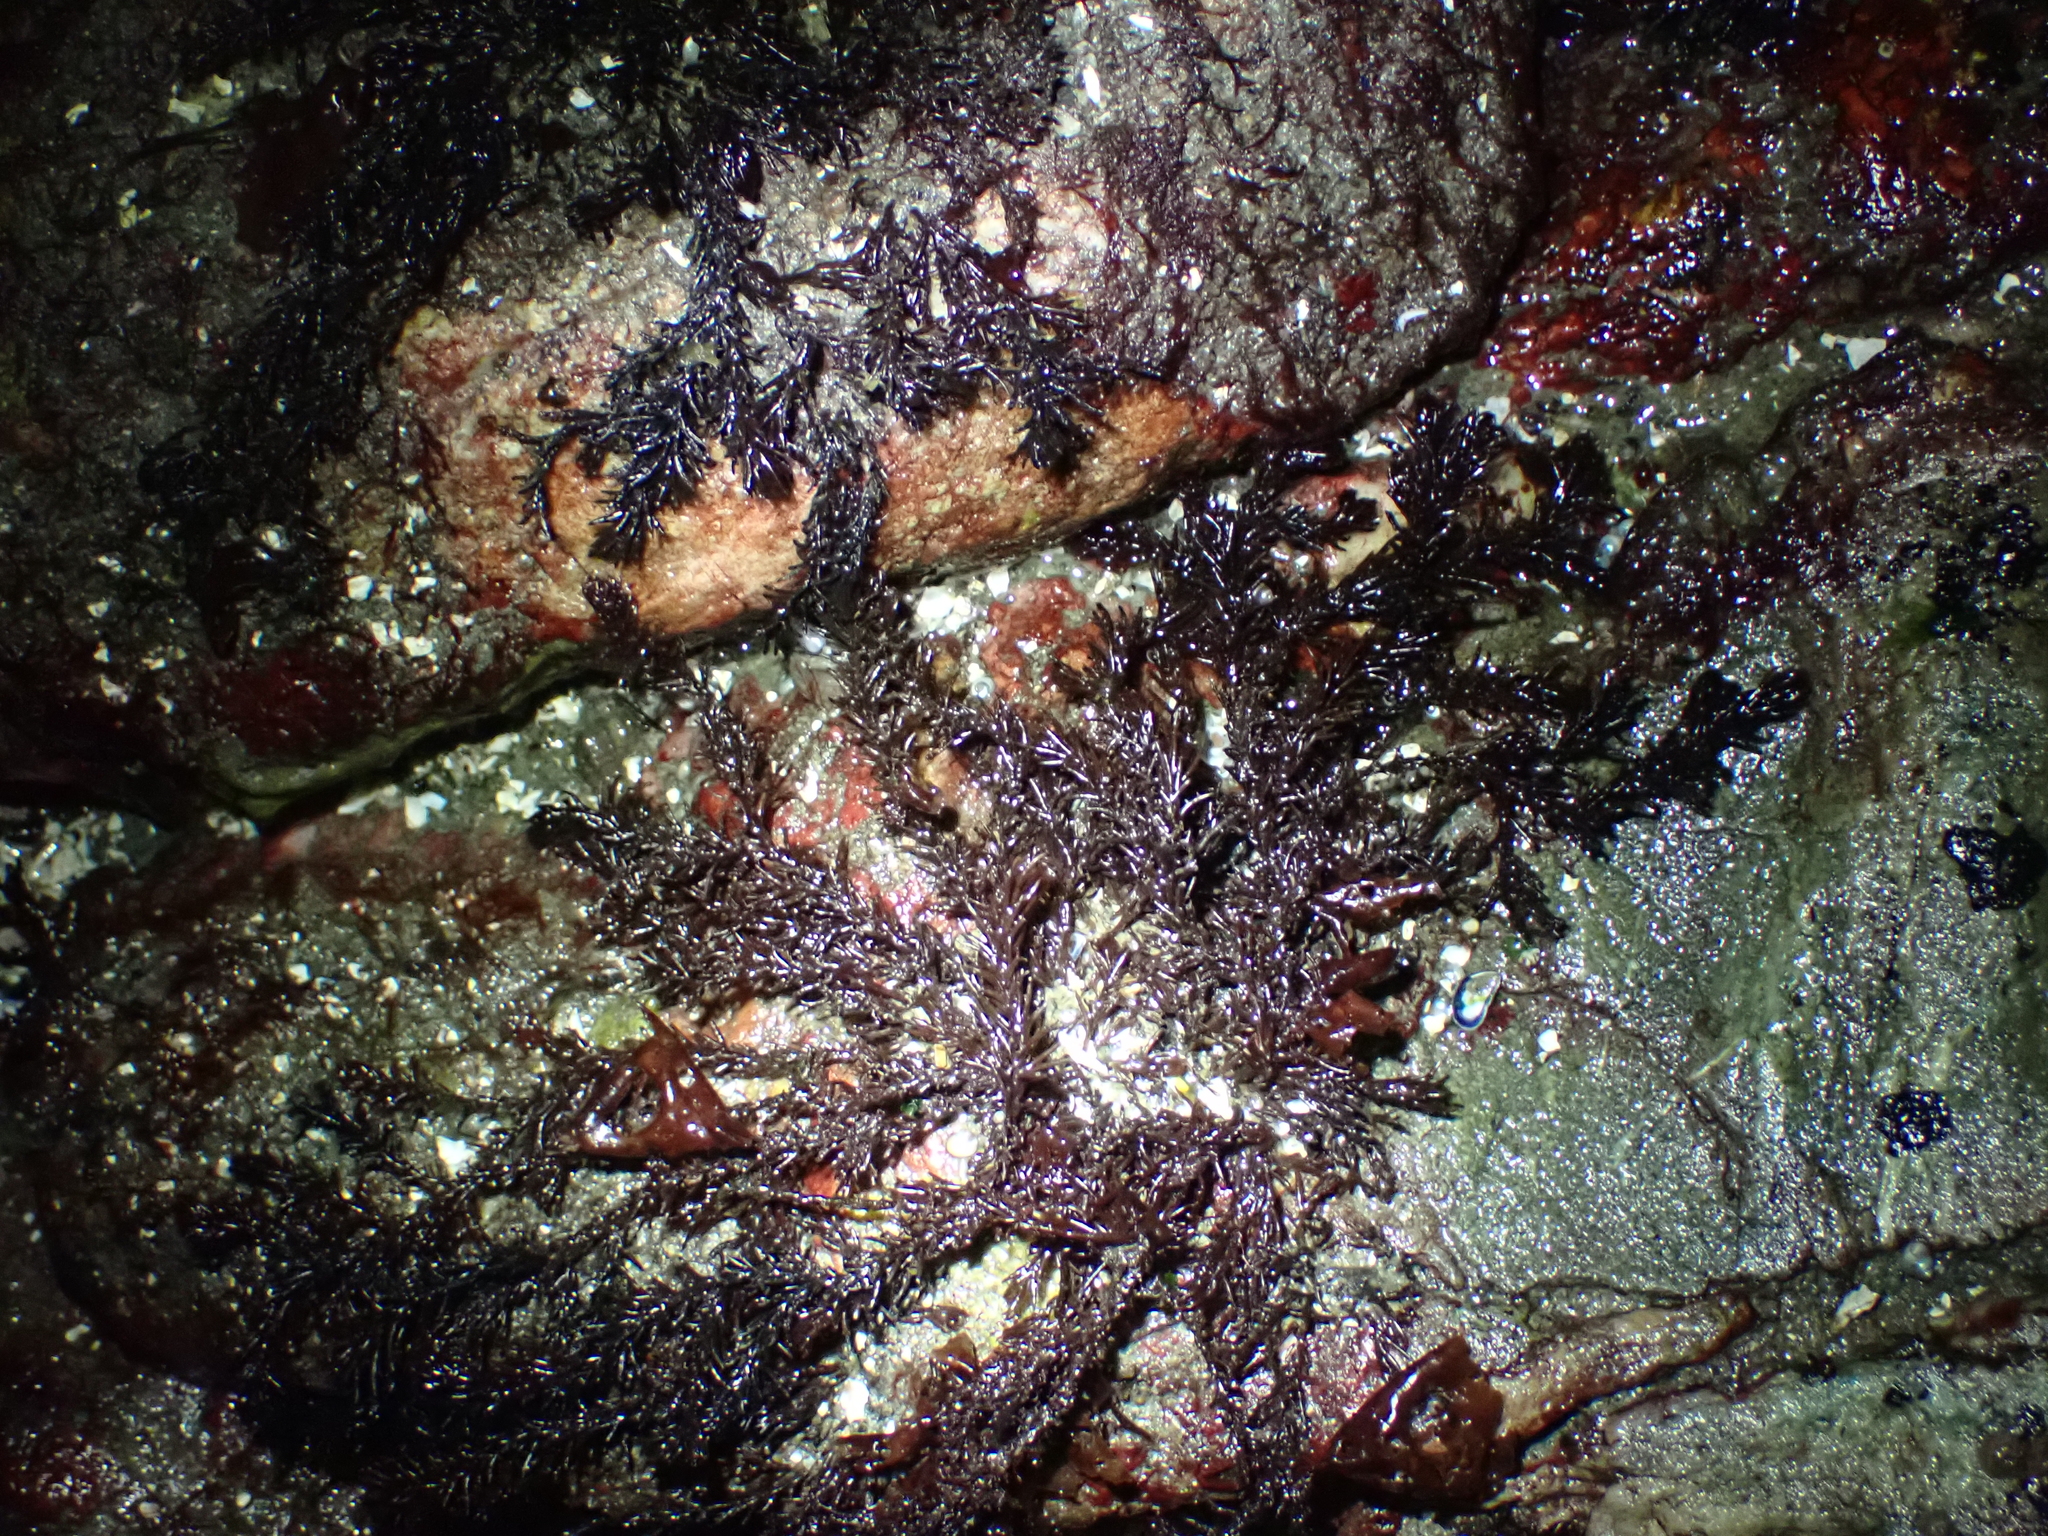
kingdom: Plantae
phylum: Rhodophyta
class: Florideophyceae
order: Ceramiales
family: Rhodomelaceae
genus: Neorhodomela
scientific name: Neorhodomela larix
